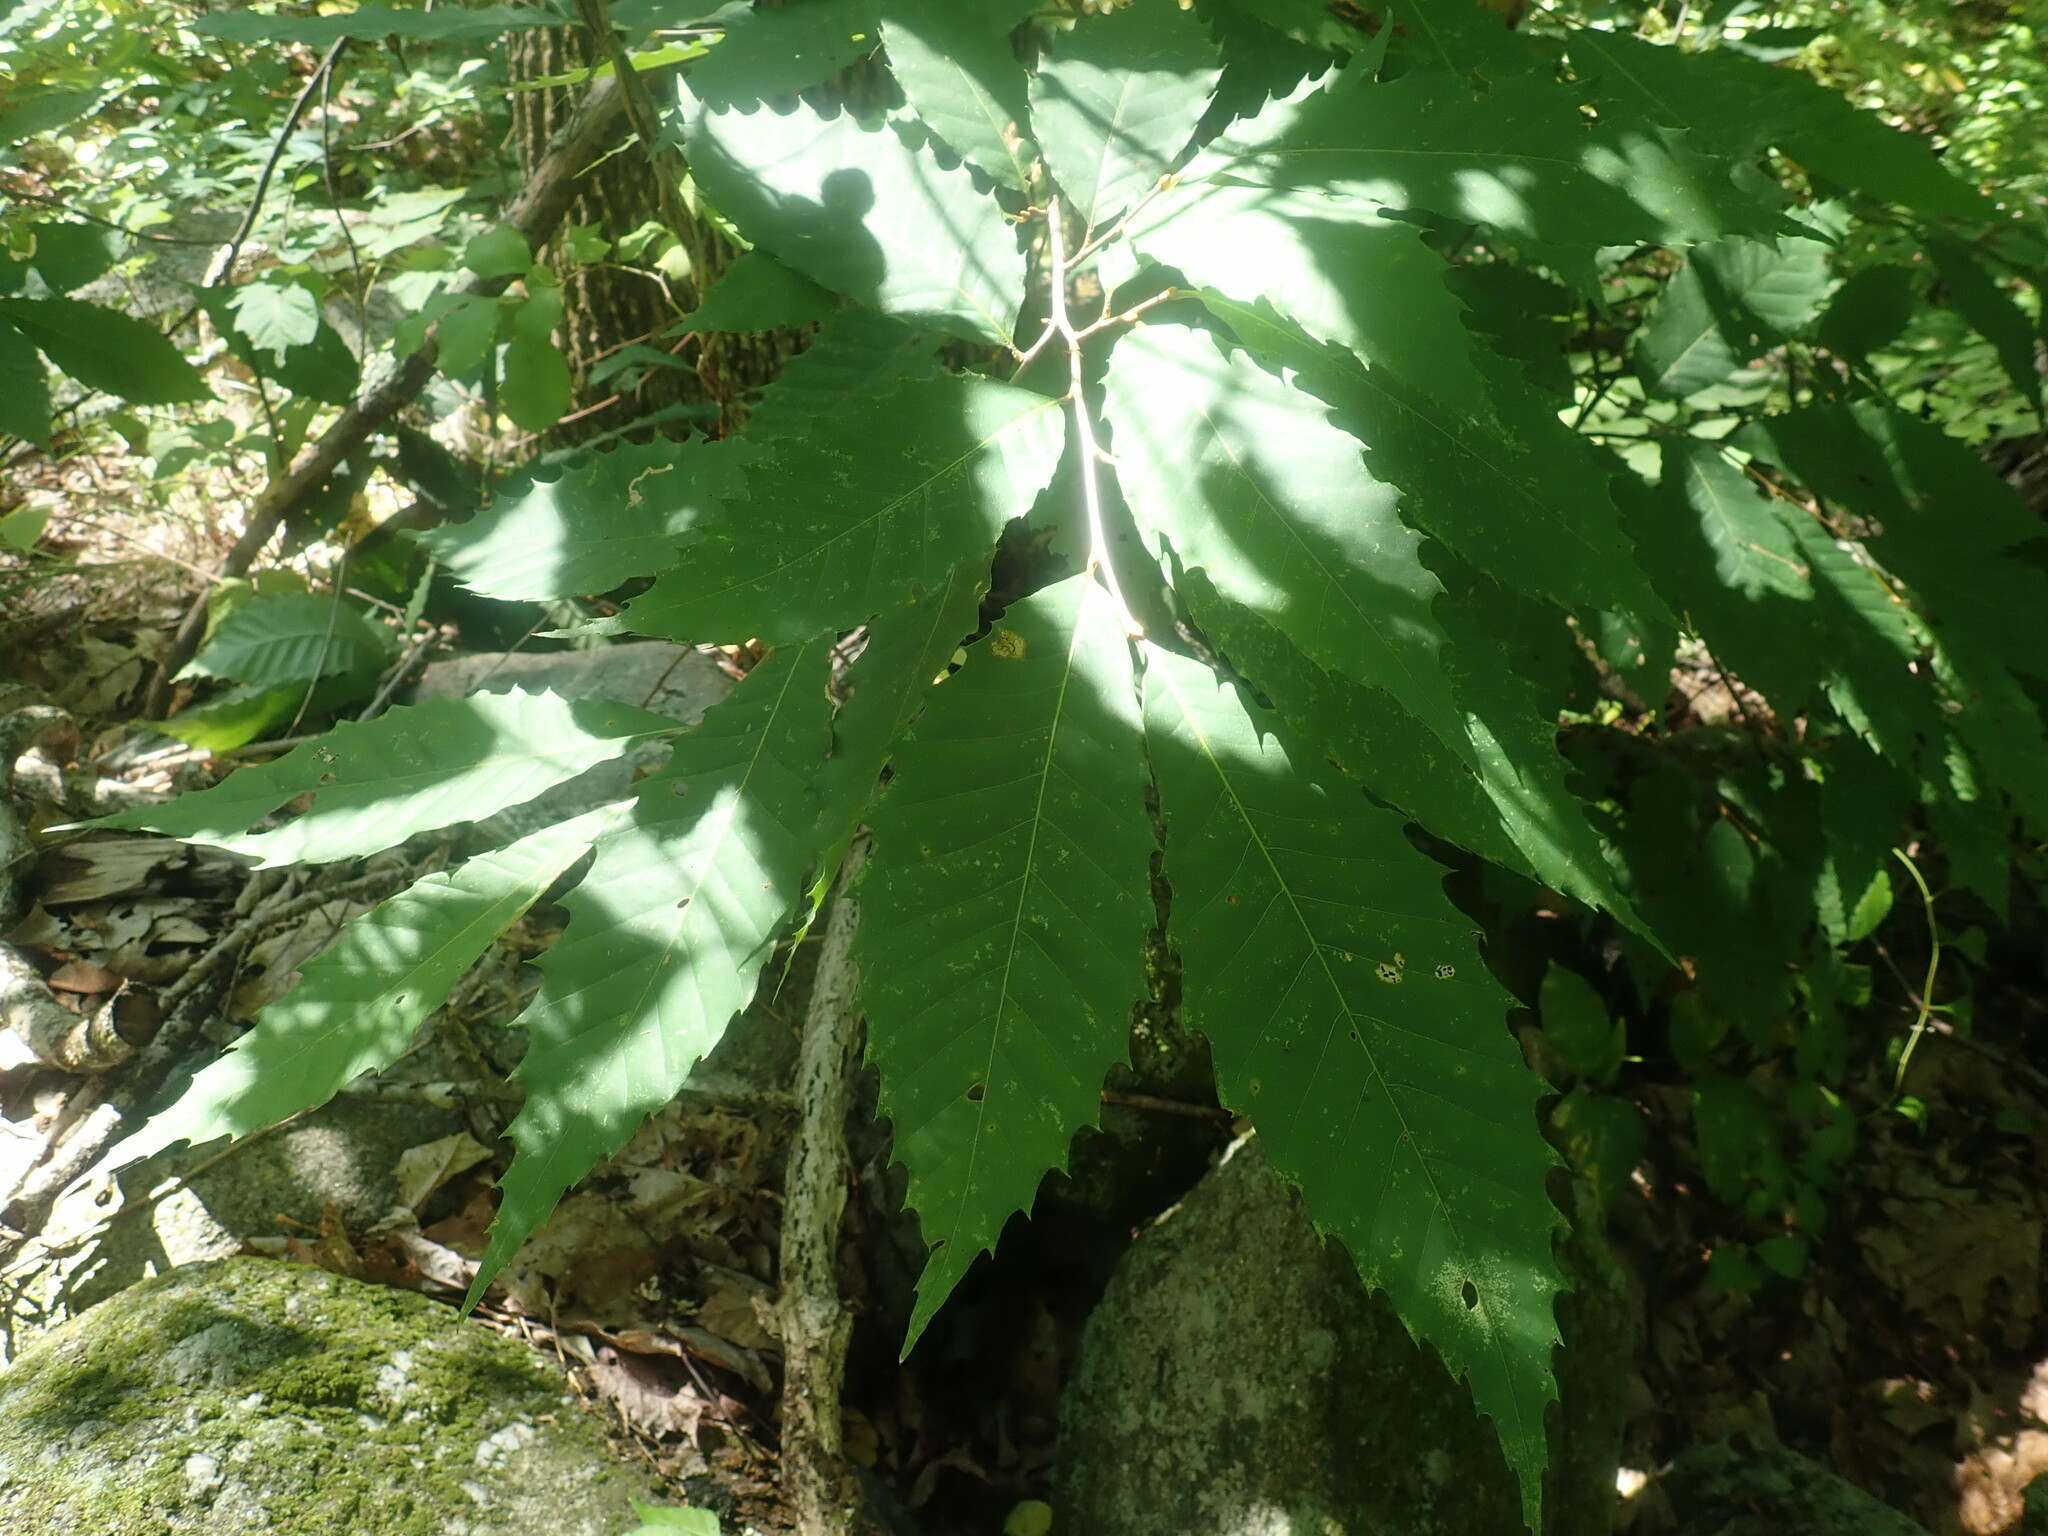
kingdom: Plantae
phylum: Tracheophyta
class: Magnoliopsida
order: Fagales
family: Fagaceae
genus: Castanea
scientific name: Castanea dentata
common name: American chestnut
